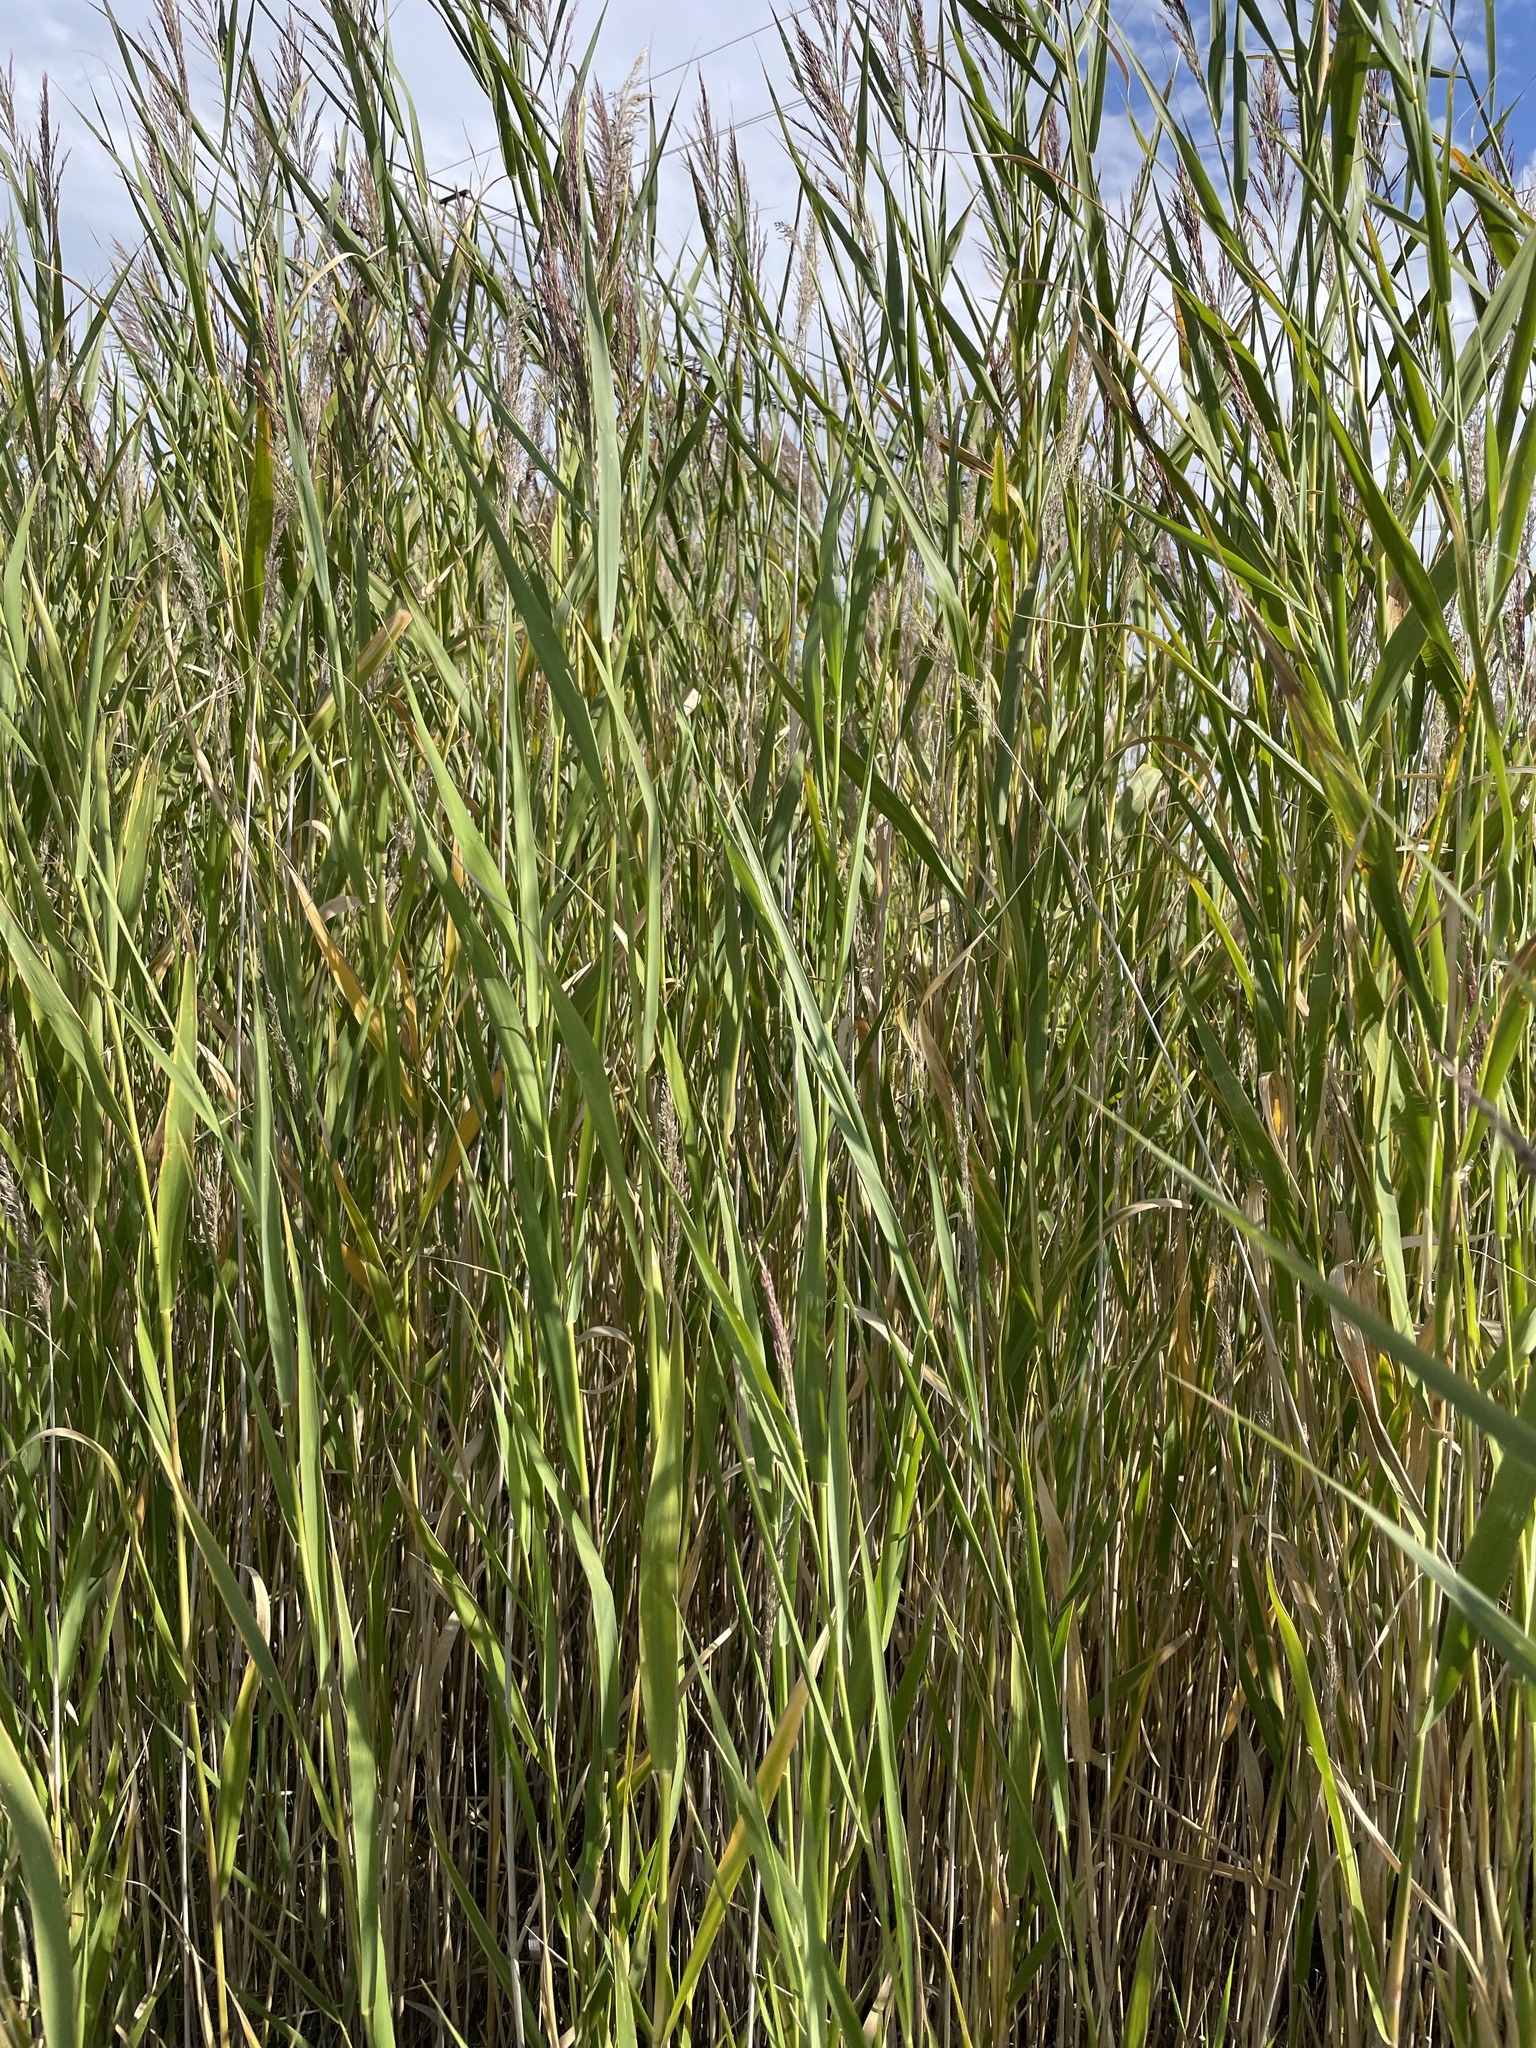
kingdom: Plantae
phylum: Tracheophyta
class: Liliopsida
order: Poales
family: Poaceae
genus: Phragmites
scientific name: Phragmites australis
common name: Common reed
